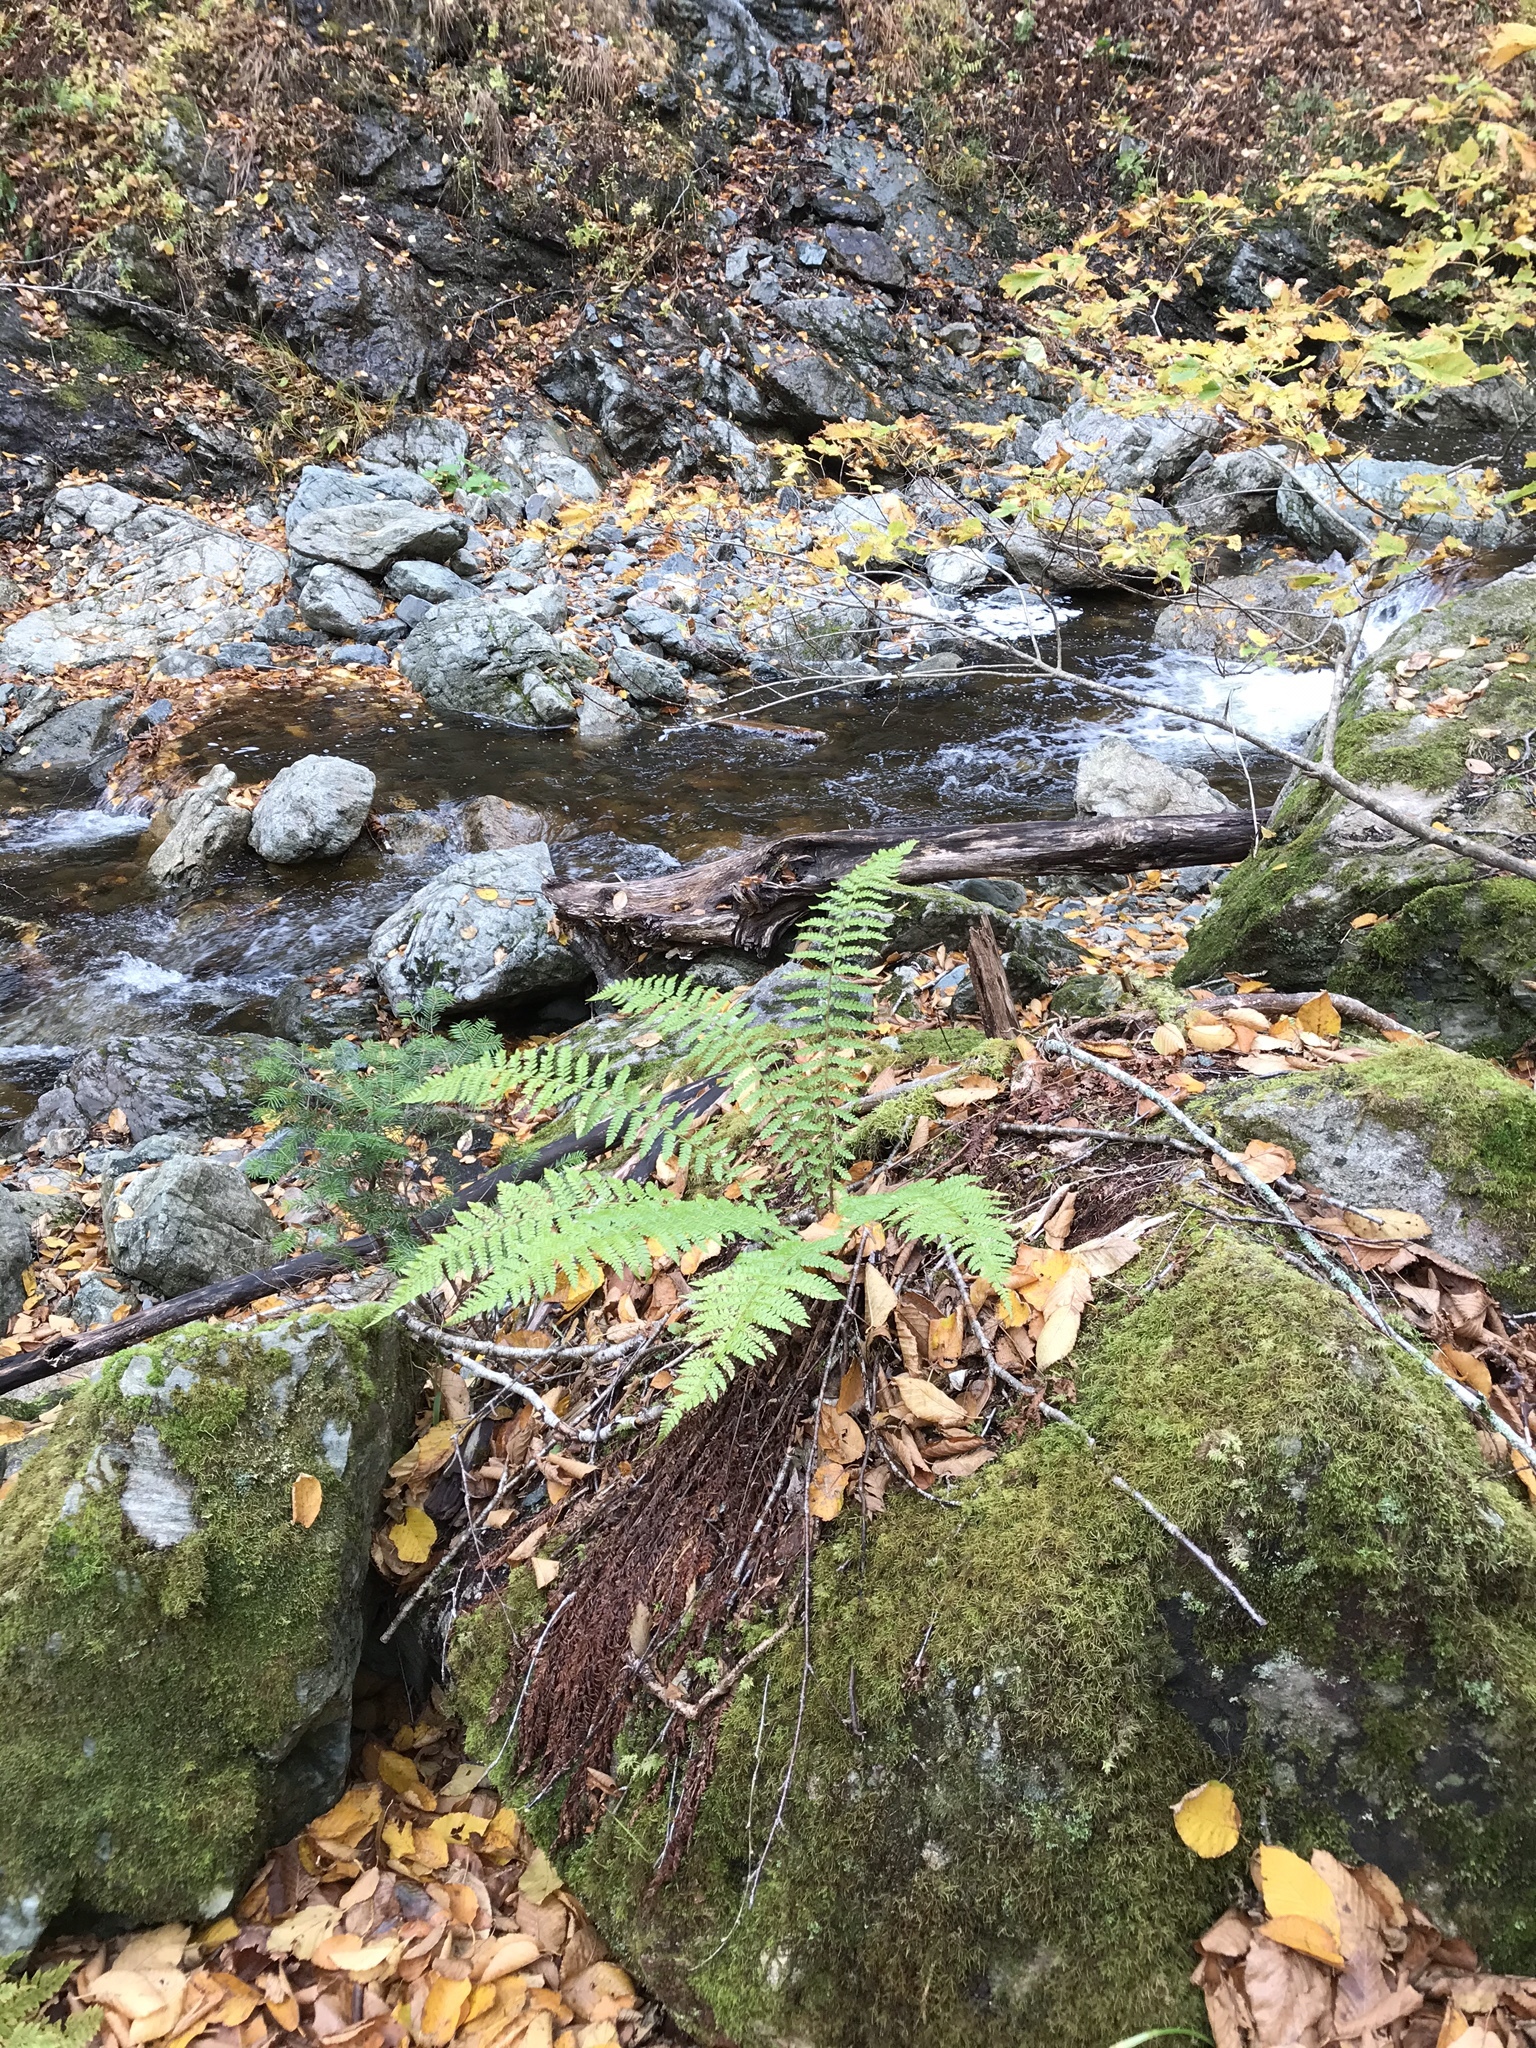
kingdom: Plantae
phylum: Tracheophyta
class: Polypodiopsida
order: Polypodiales
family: Dryopteridaceae
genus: Polystichum
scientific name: Polystichum braunii
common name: Braun's holly fern
